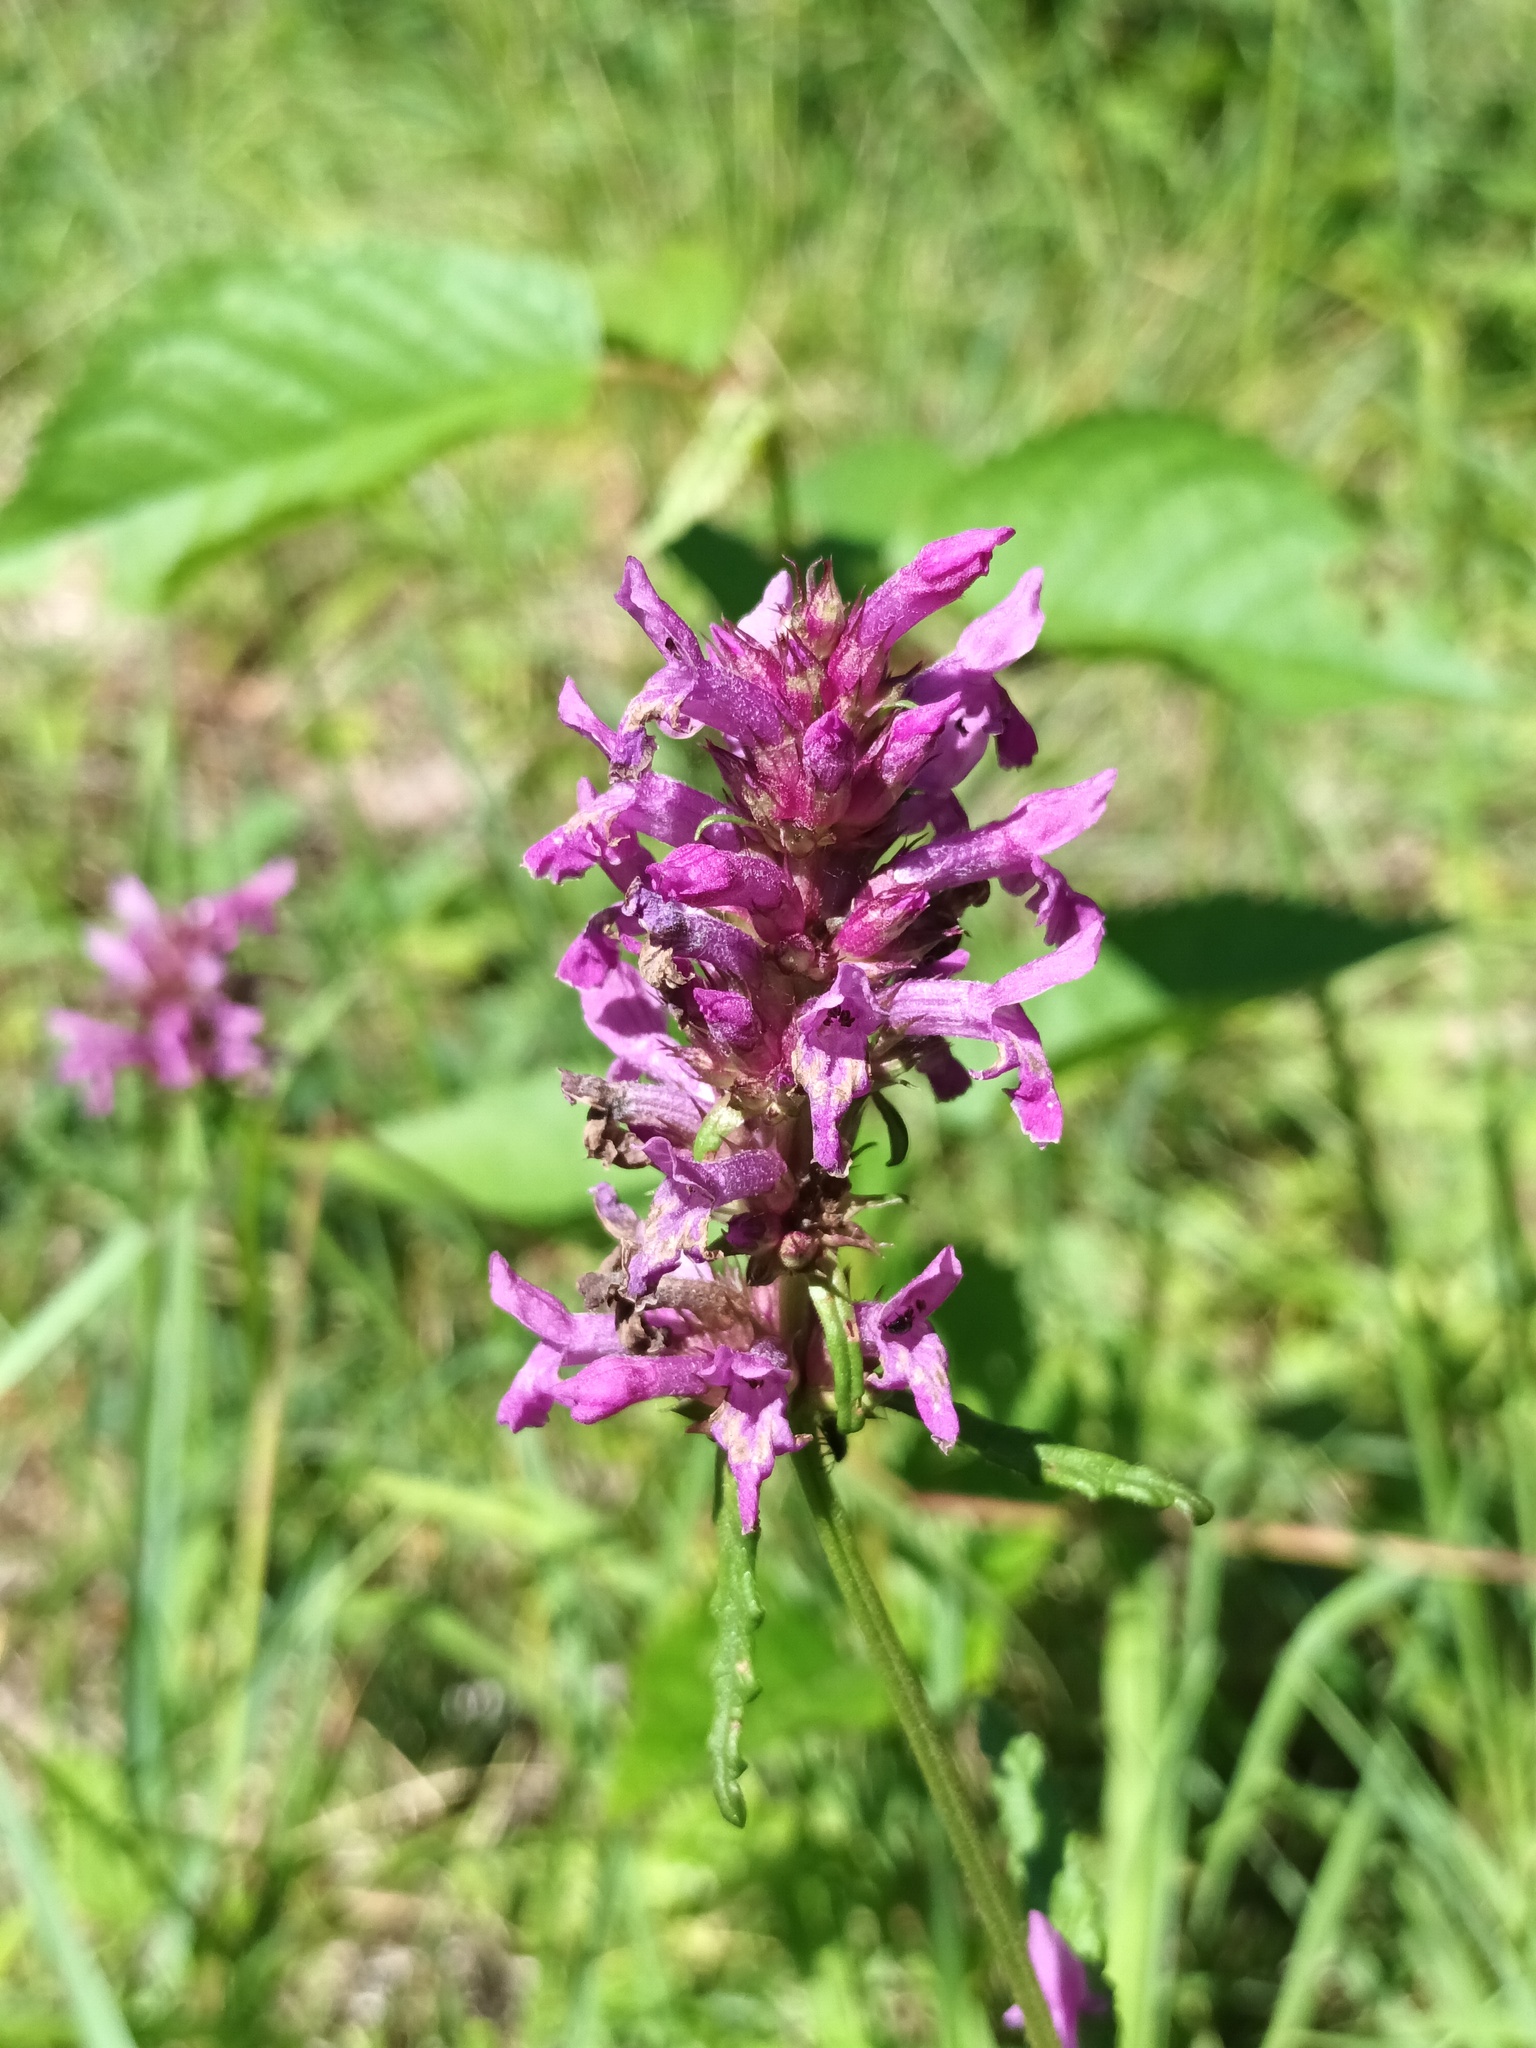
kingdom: Plantae
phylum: Tracheophyta
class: Magnoliopsida
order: Lamiales
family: Lamiaceae
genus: Betonica
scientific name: Betonica officinalis
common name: Bishop's-wort
